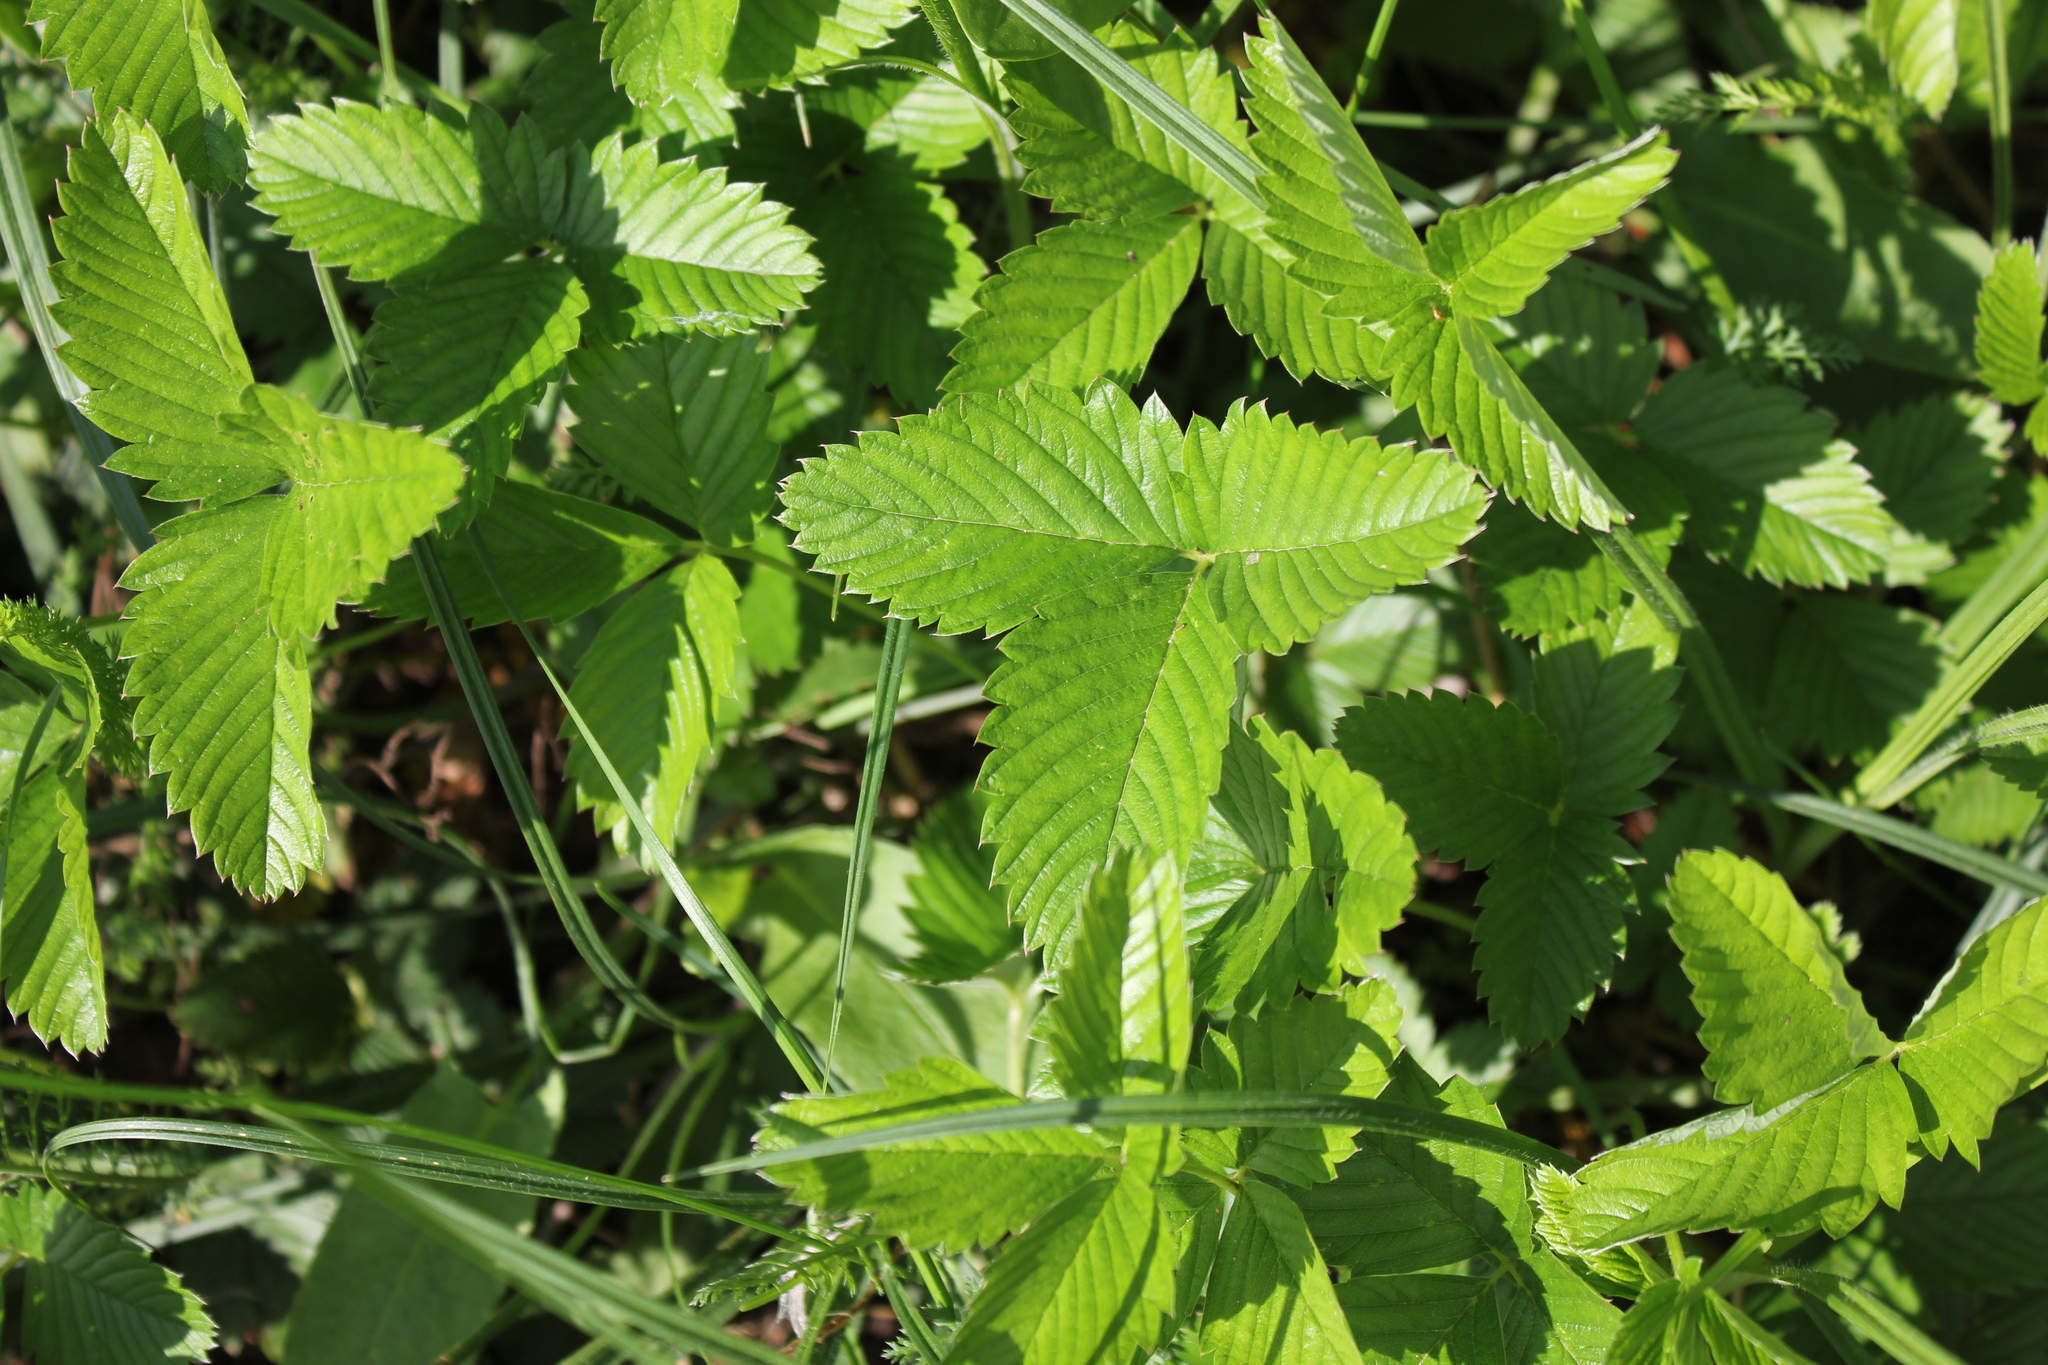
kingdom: Plantae
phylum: Tracheophyta
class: Magnoliopsida
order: Rosales
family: Rosaceae
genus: Fragaria
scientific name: Fragaria viridis
